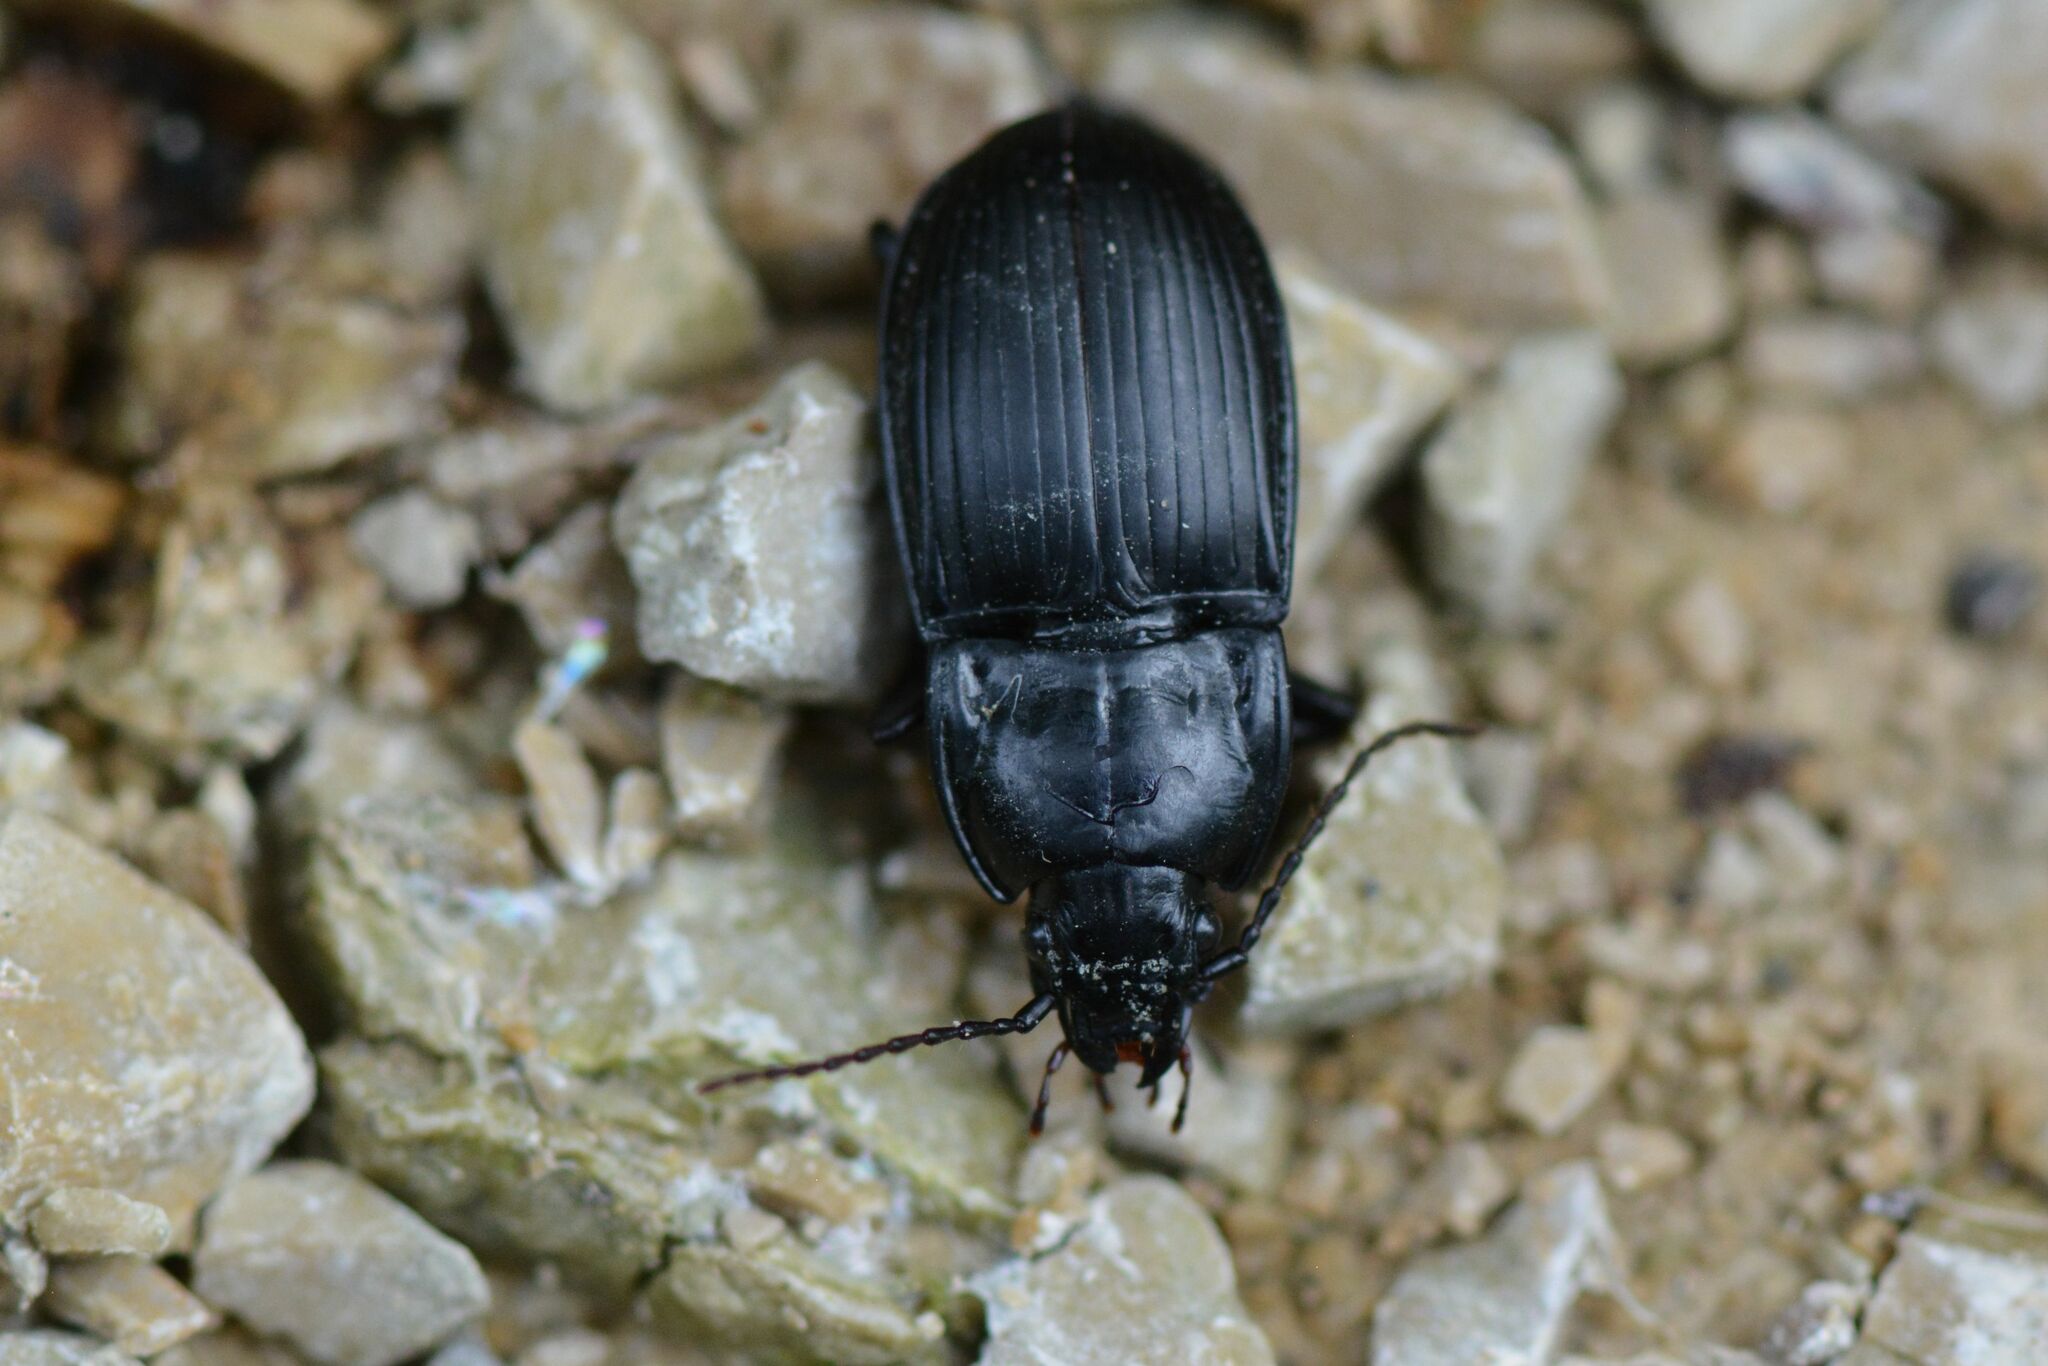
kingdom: Animalia
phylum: Arthropoda
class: Insecta
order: Coleoptera
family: Carabidae
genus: Abax
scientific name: Abax ovalis
